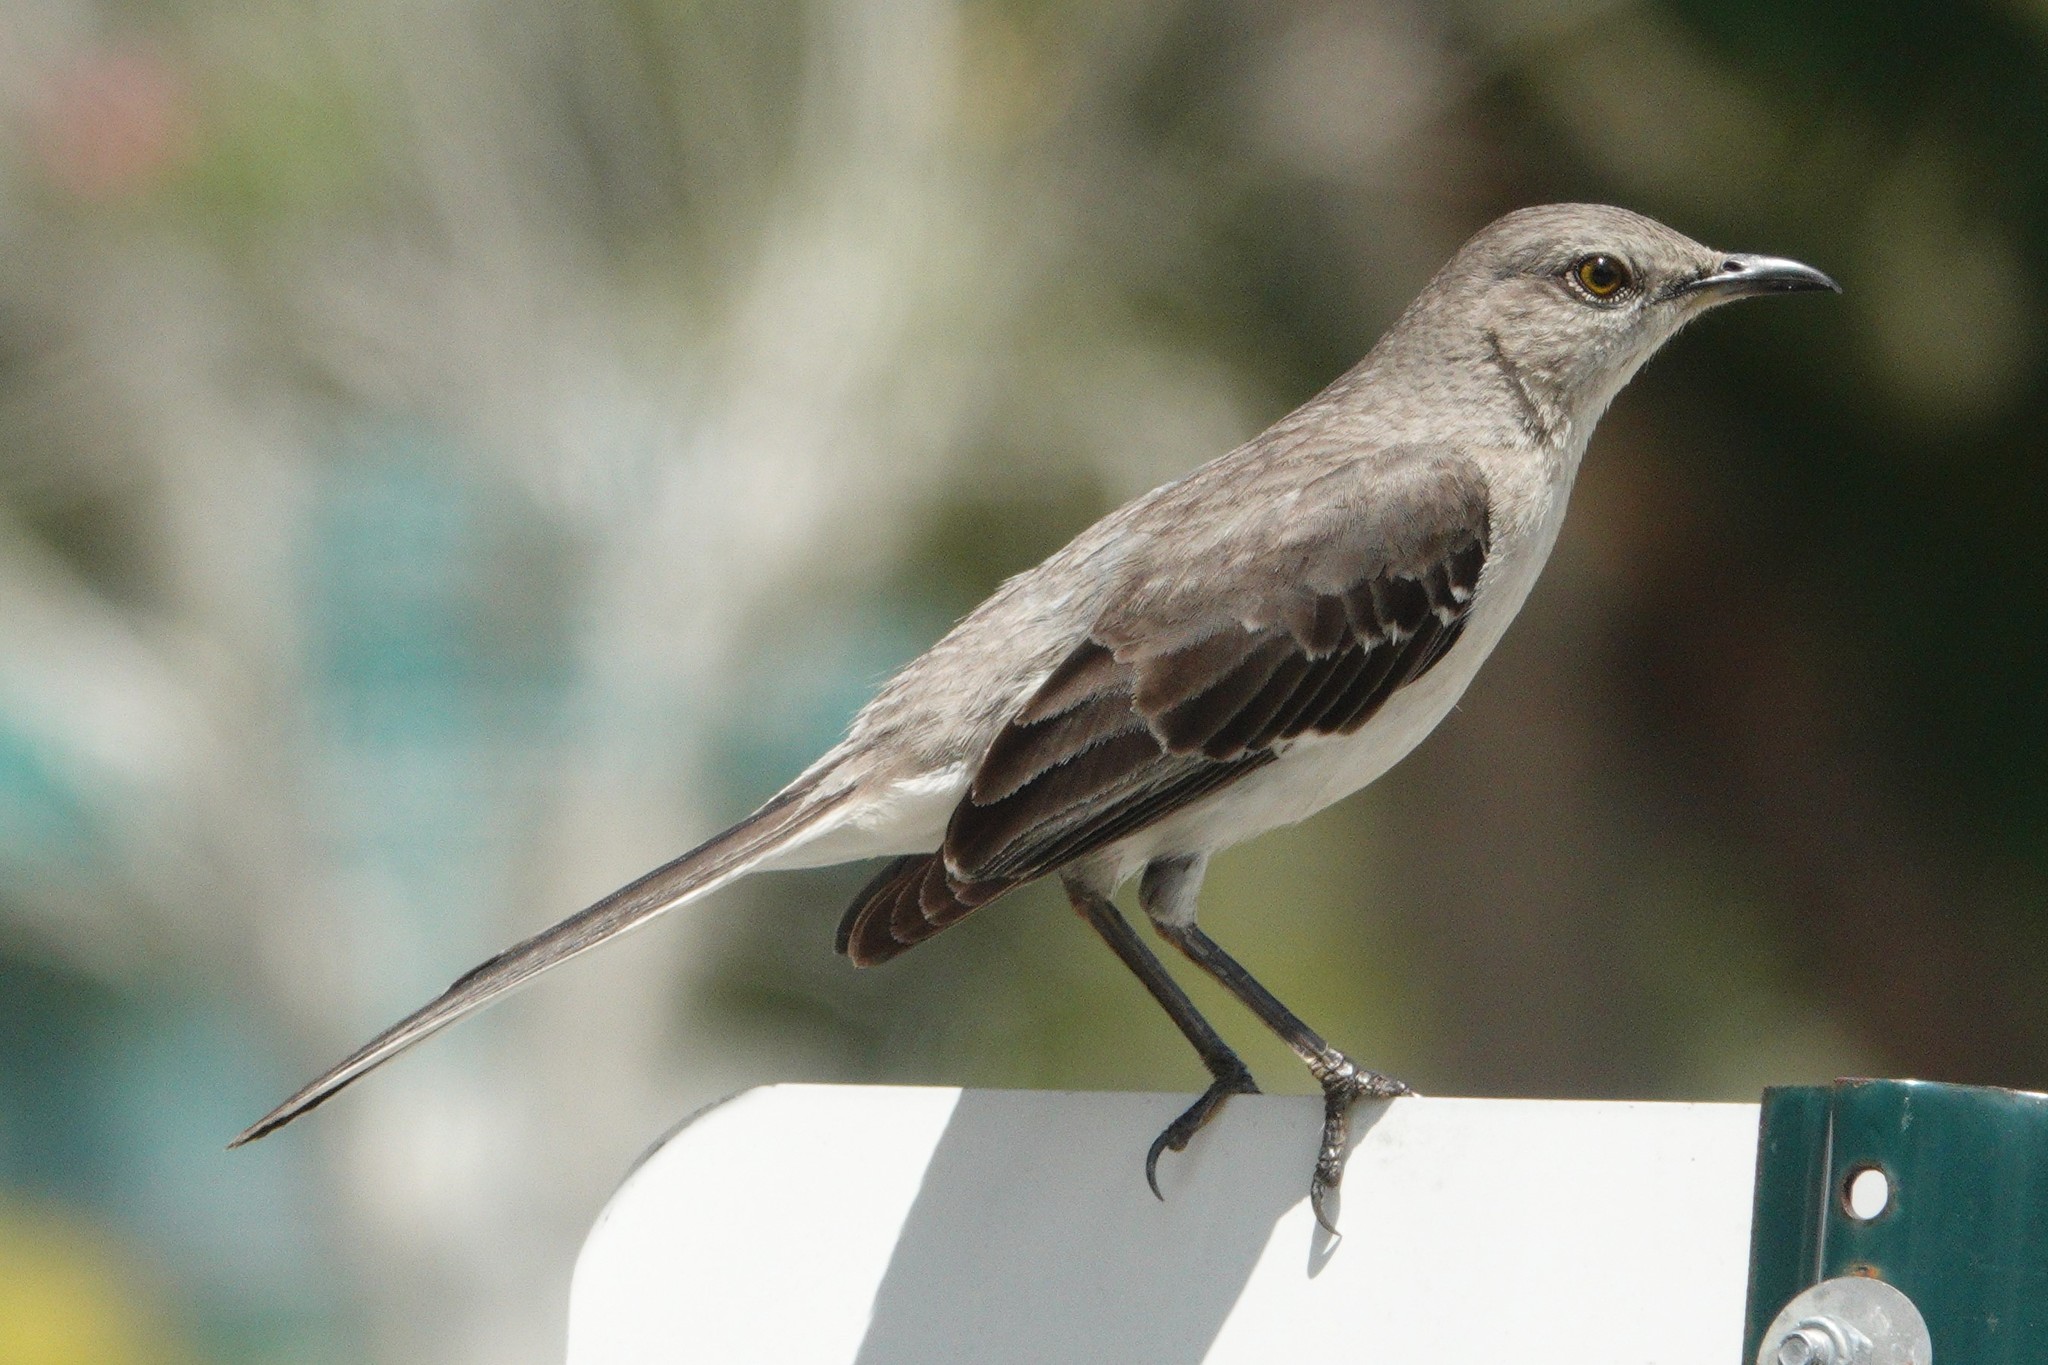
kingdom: Animalia
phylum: Chordata
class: Aves
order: Passeriformes
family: Mimidae
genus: Mimus
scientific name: Mimus polyglottos
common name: Northern mockingbird
